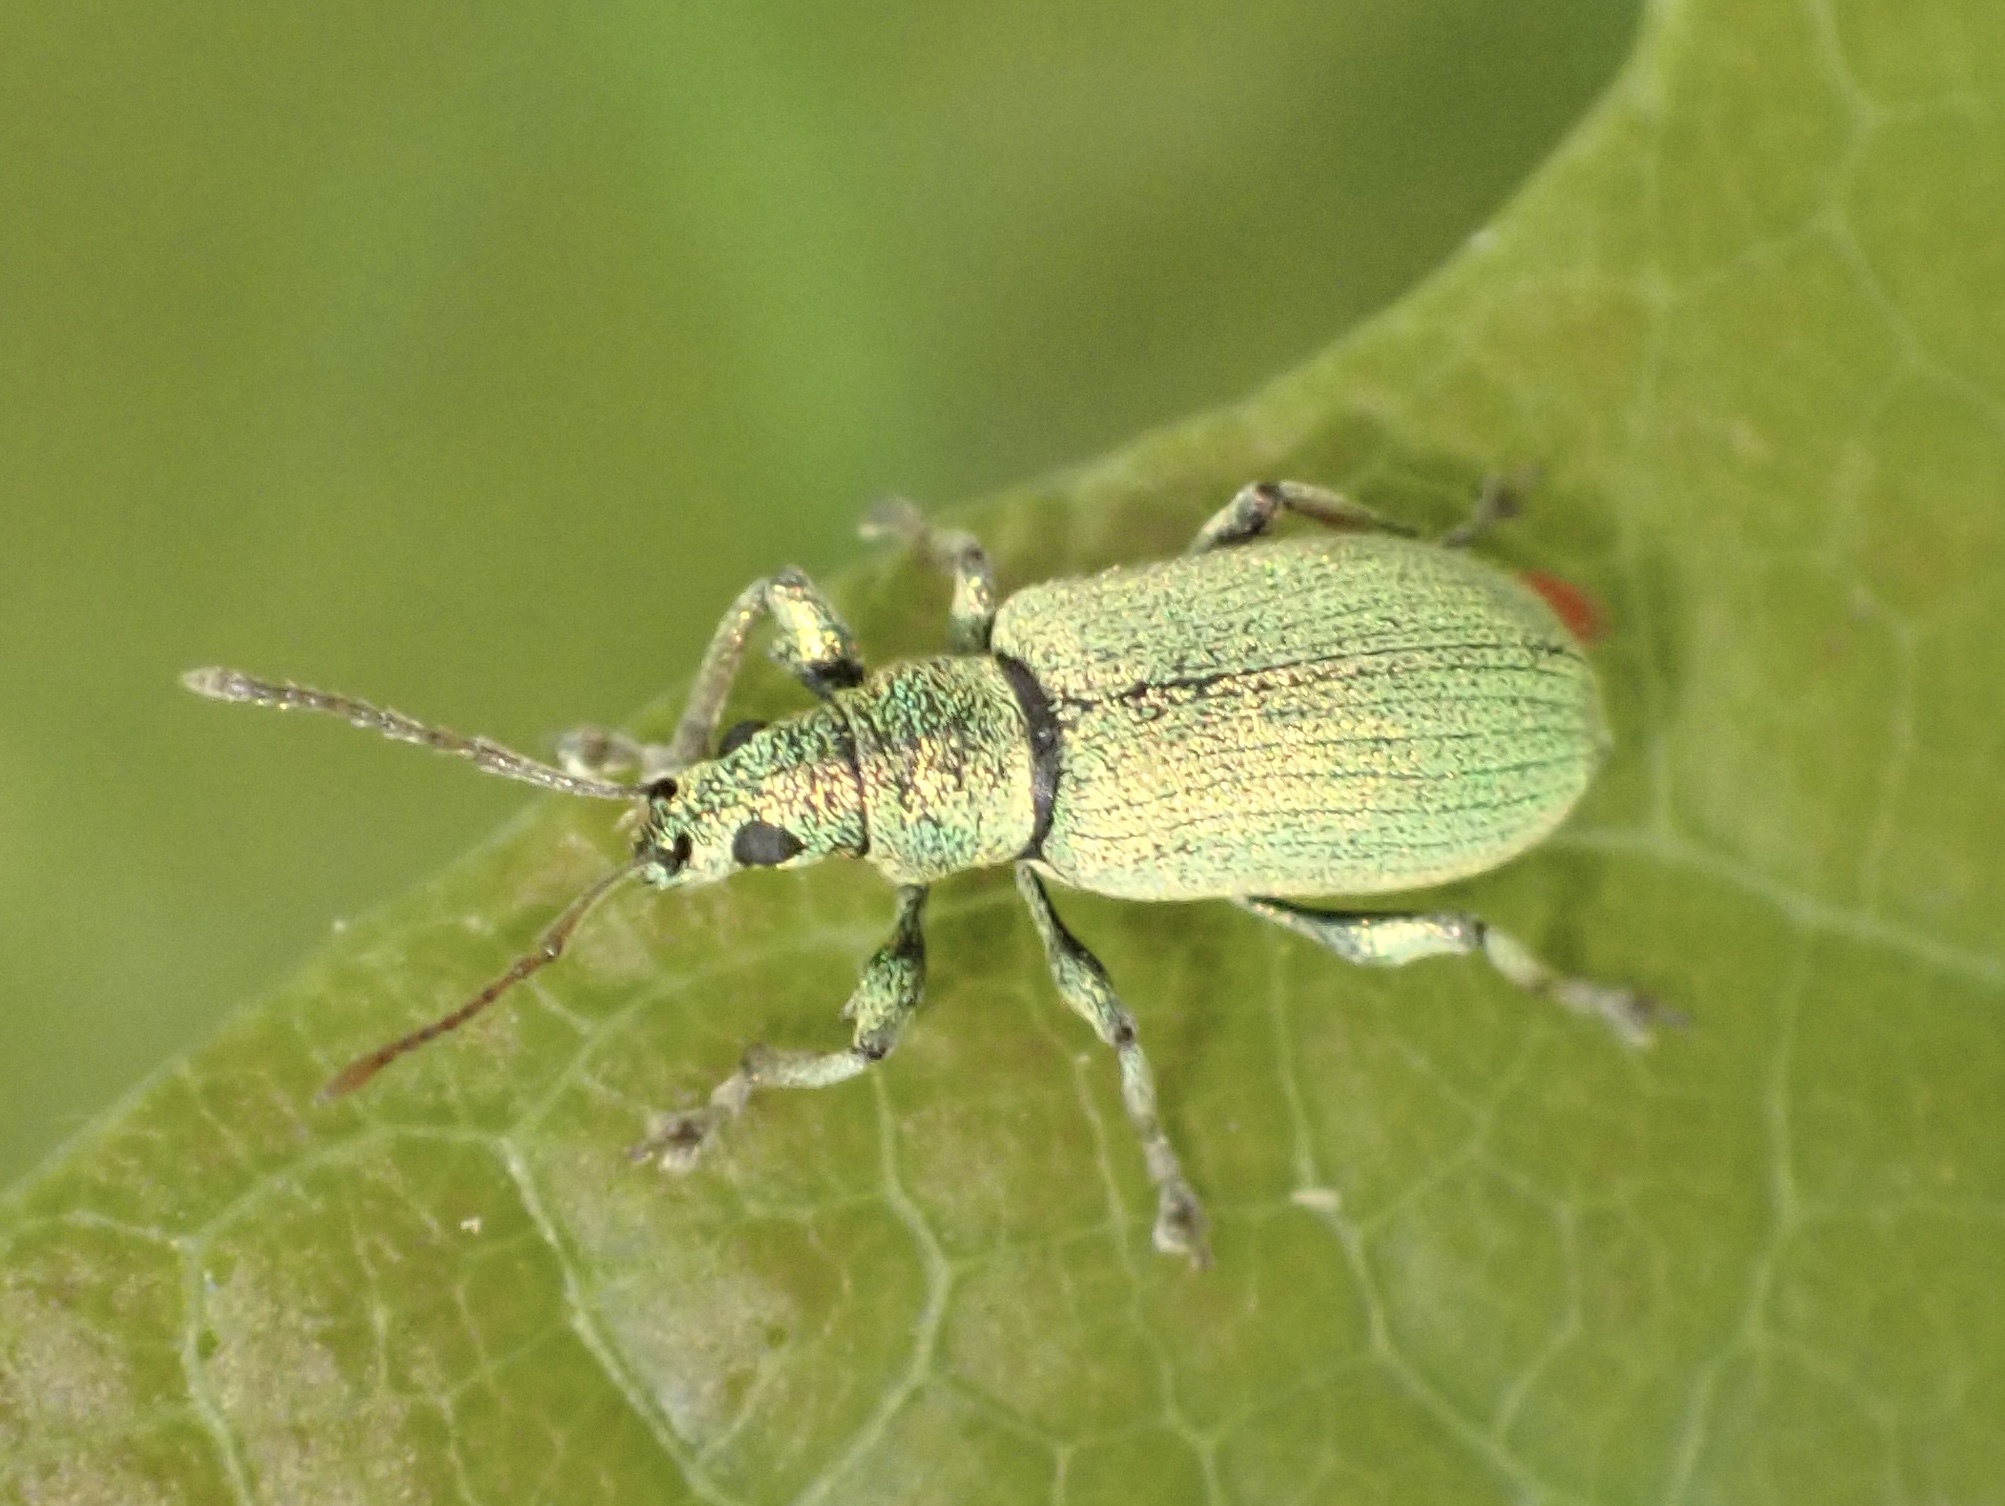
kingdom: Animalia
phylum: Arthropoda
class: Insecta
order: Coleoptera
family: Curculionidae
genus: Phyllobius
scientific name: Phyllobius argentatus
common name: Silver-green leaf weevil
